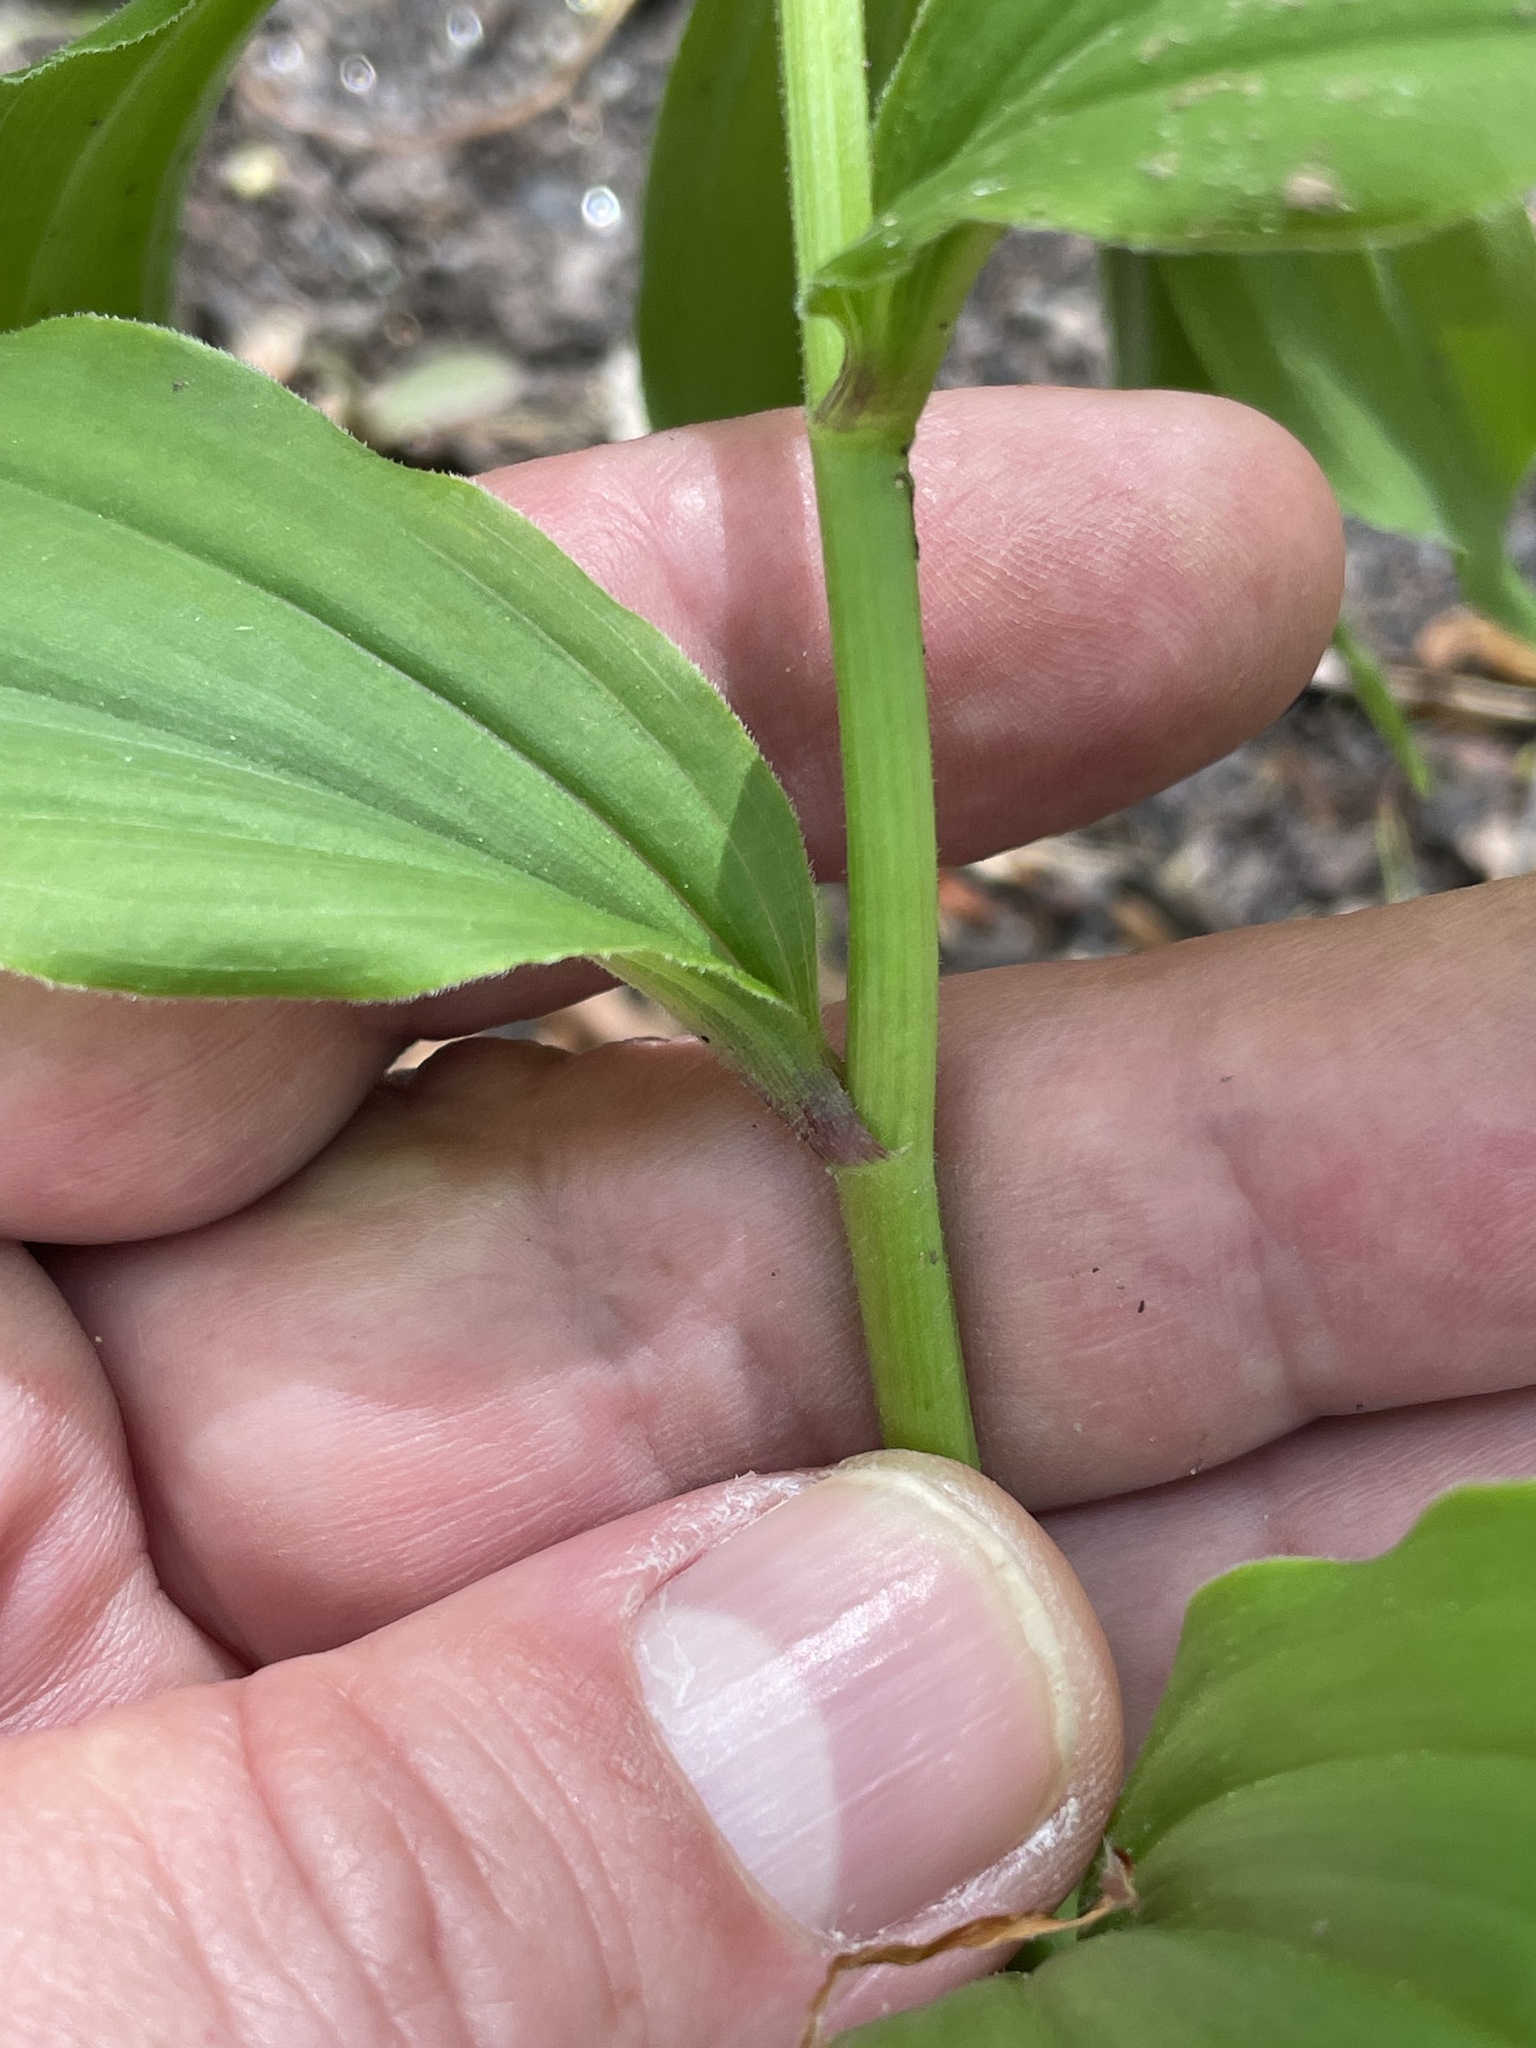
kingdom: Plantae
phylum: Tracheophyta
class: Liliopsida
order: Asparagales
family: Asparagaceae
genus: Maianthemum
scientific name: Maianthemum racemosum
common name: False spikenard
